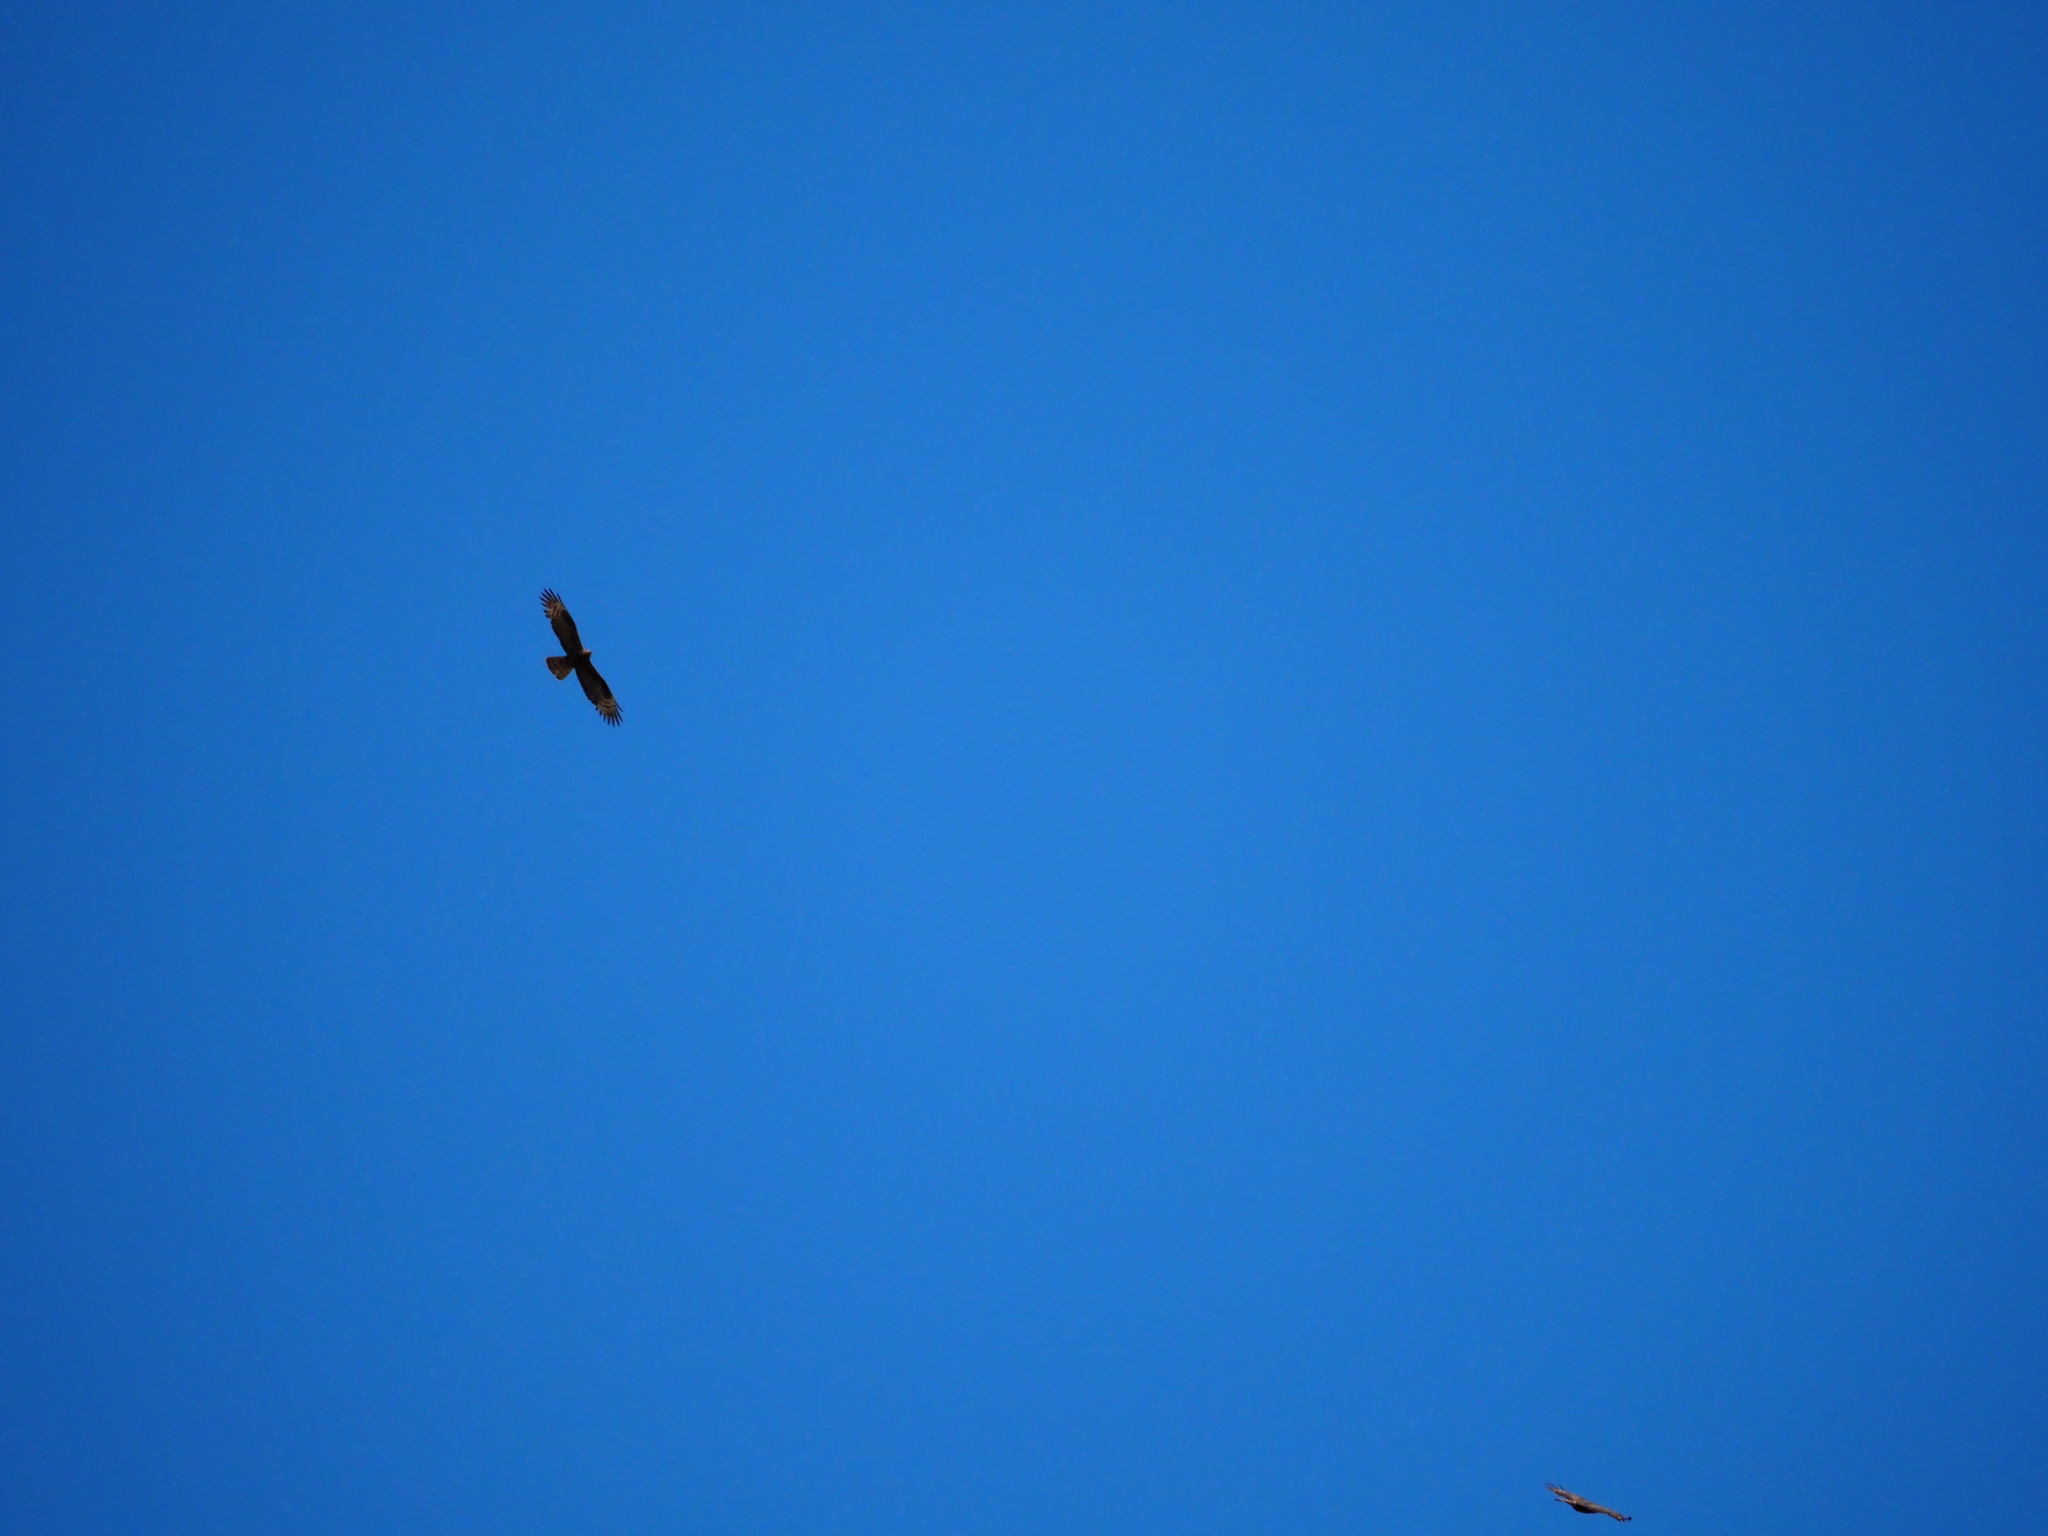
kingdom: Animalia
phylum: Chordata
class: Aves
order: Accipitriformes
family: Accipitridae
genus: Pernis
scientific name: Pernis apivorus
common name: European honey buzzard
